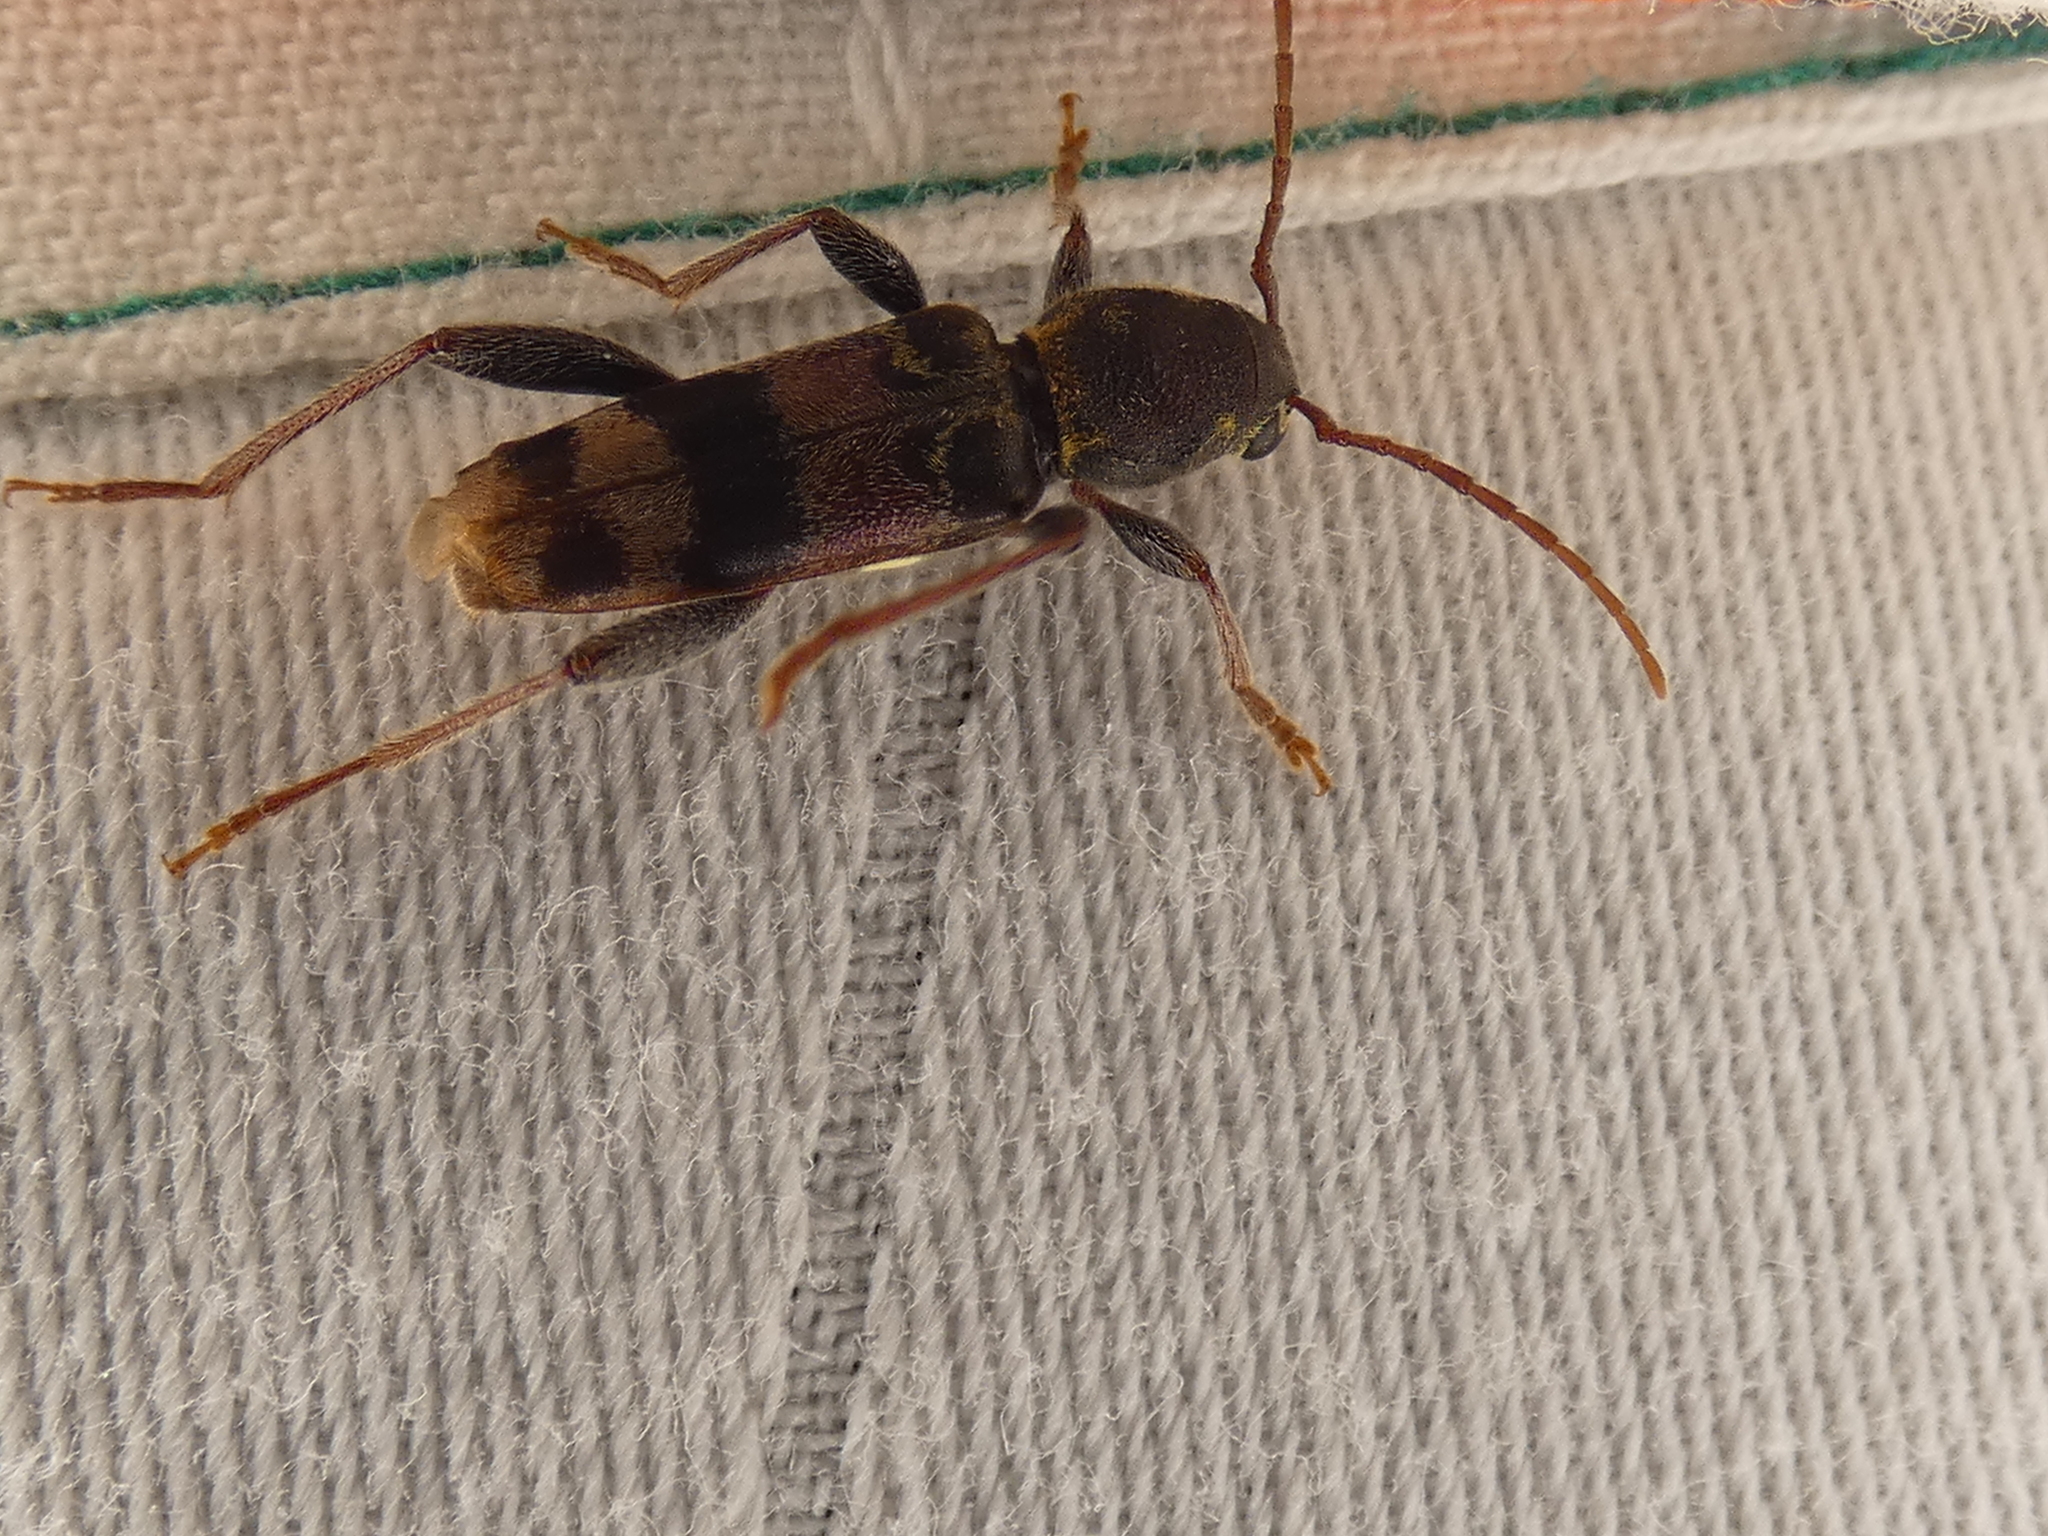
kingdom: Animalia
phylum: Arthropoda
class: Insecta
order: Coleoptera
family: Cerambycidae
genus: Xylotrechus
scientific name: Xylotrechus colonus
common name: Long-horned beetle
